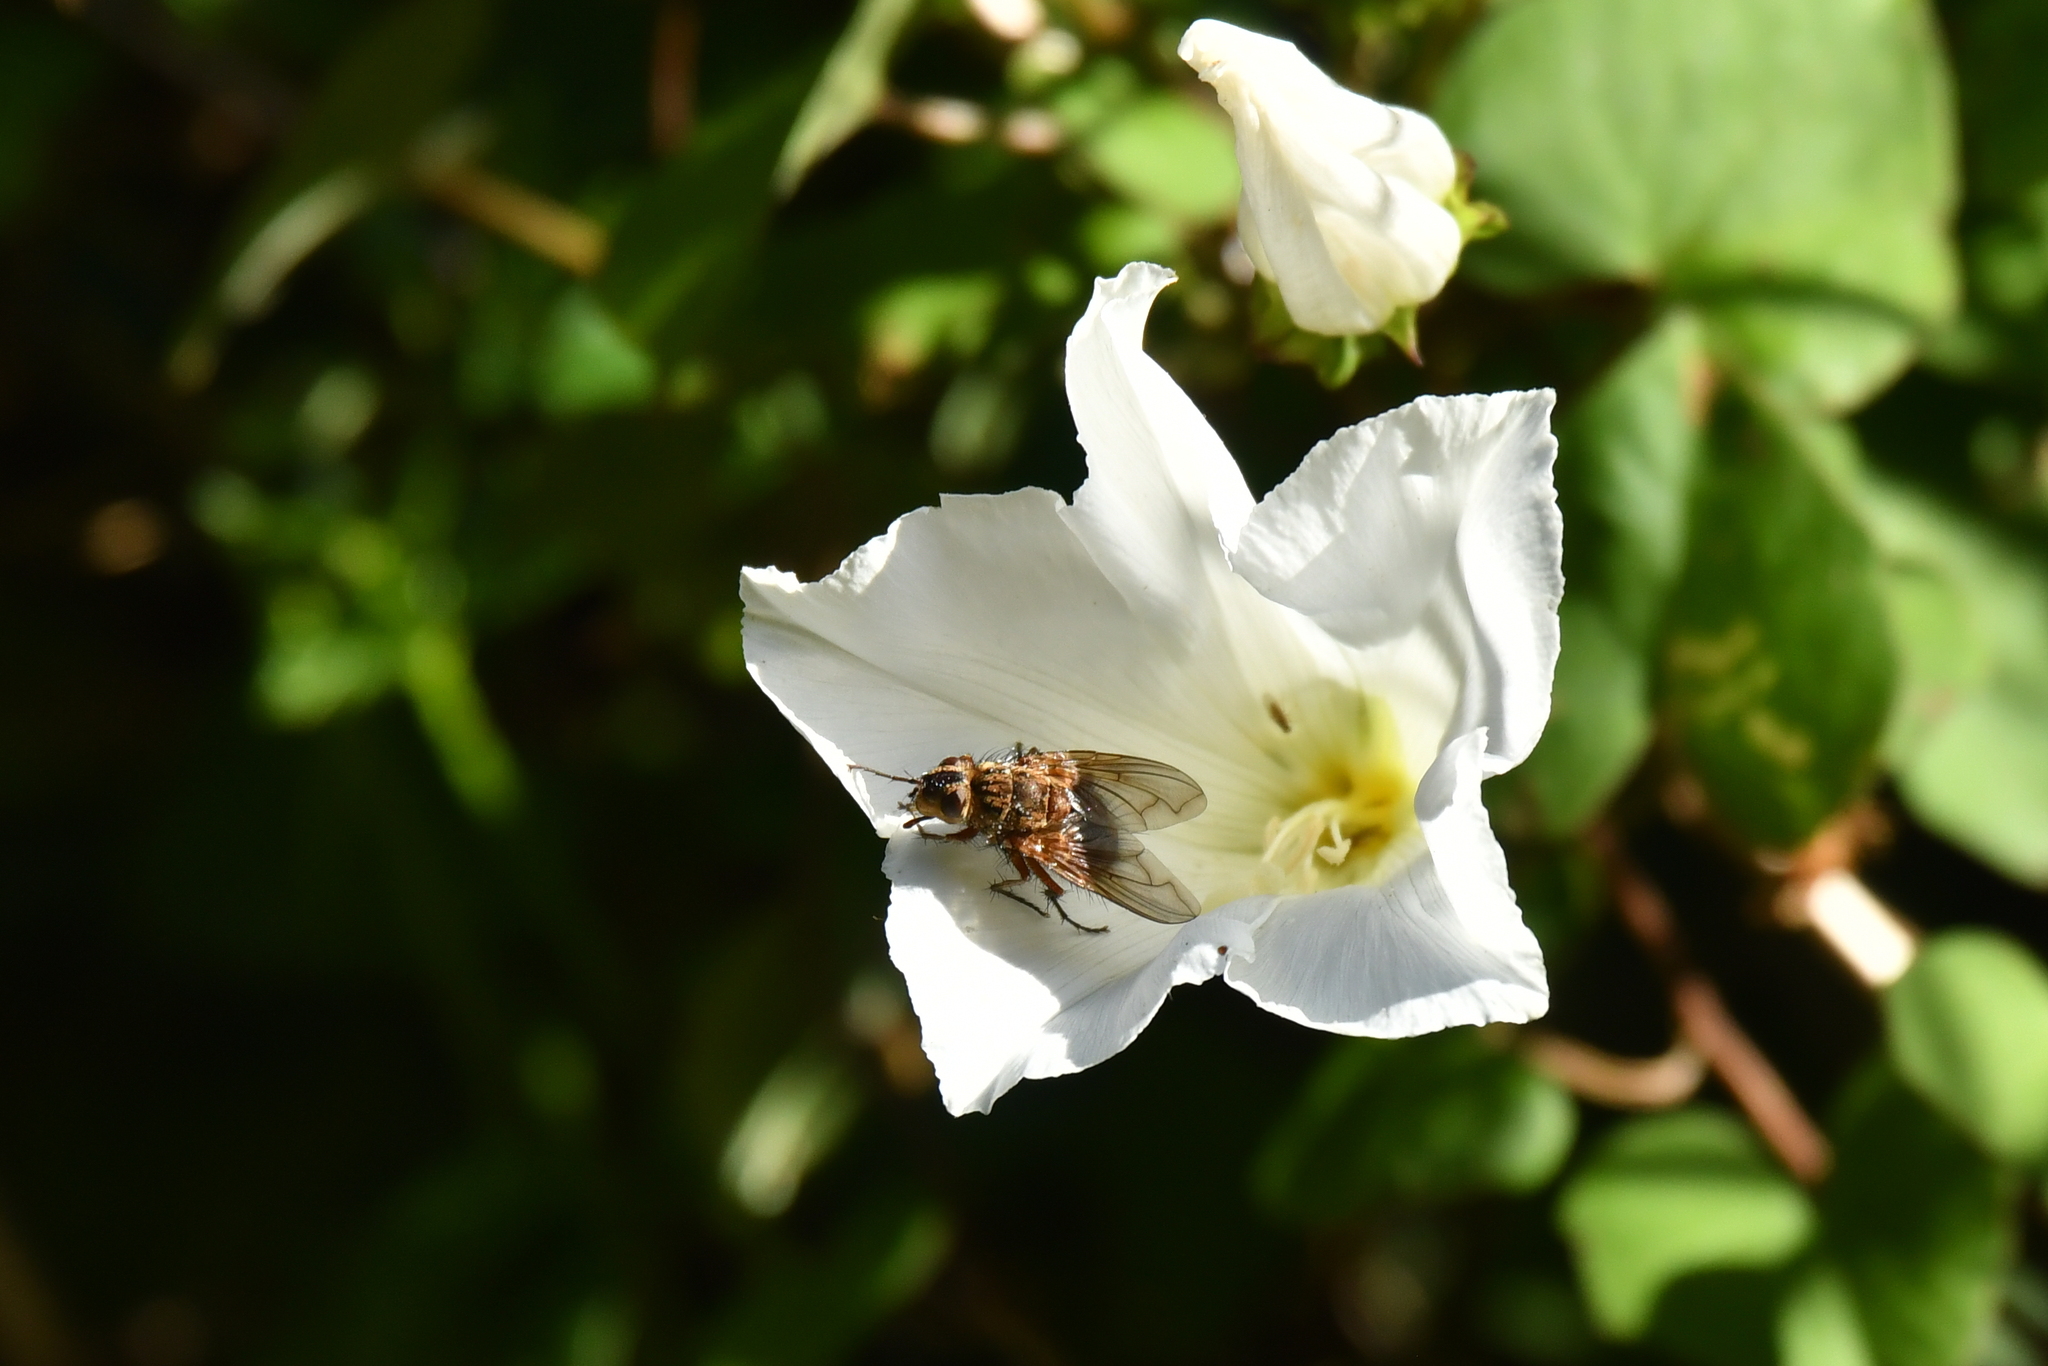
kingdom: Animalia
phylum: Arthropoda
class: Insecta
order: Diptera
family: Tachinidae
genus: Peremptor
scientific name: Peremptor kumaraensis
